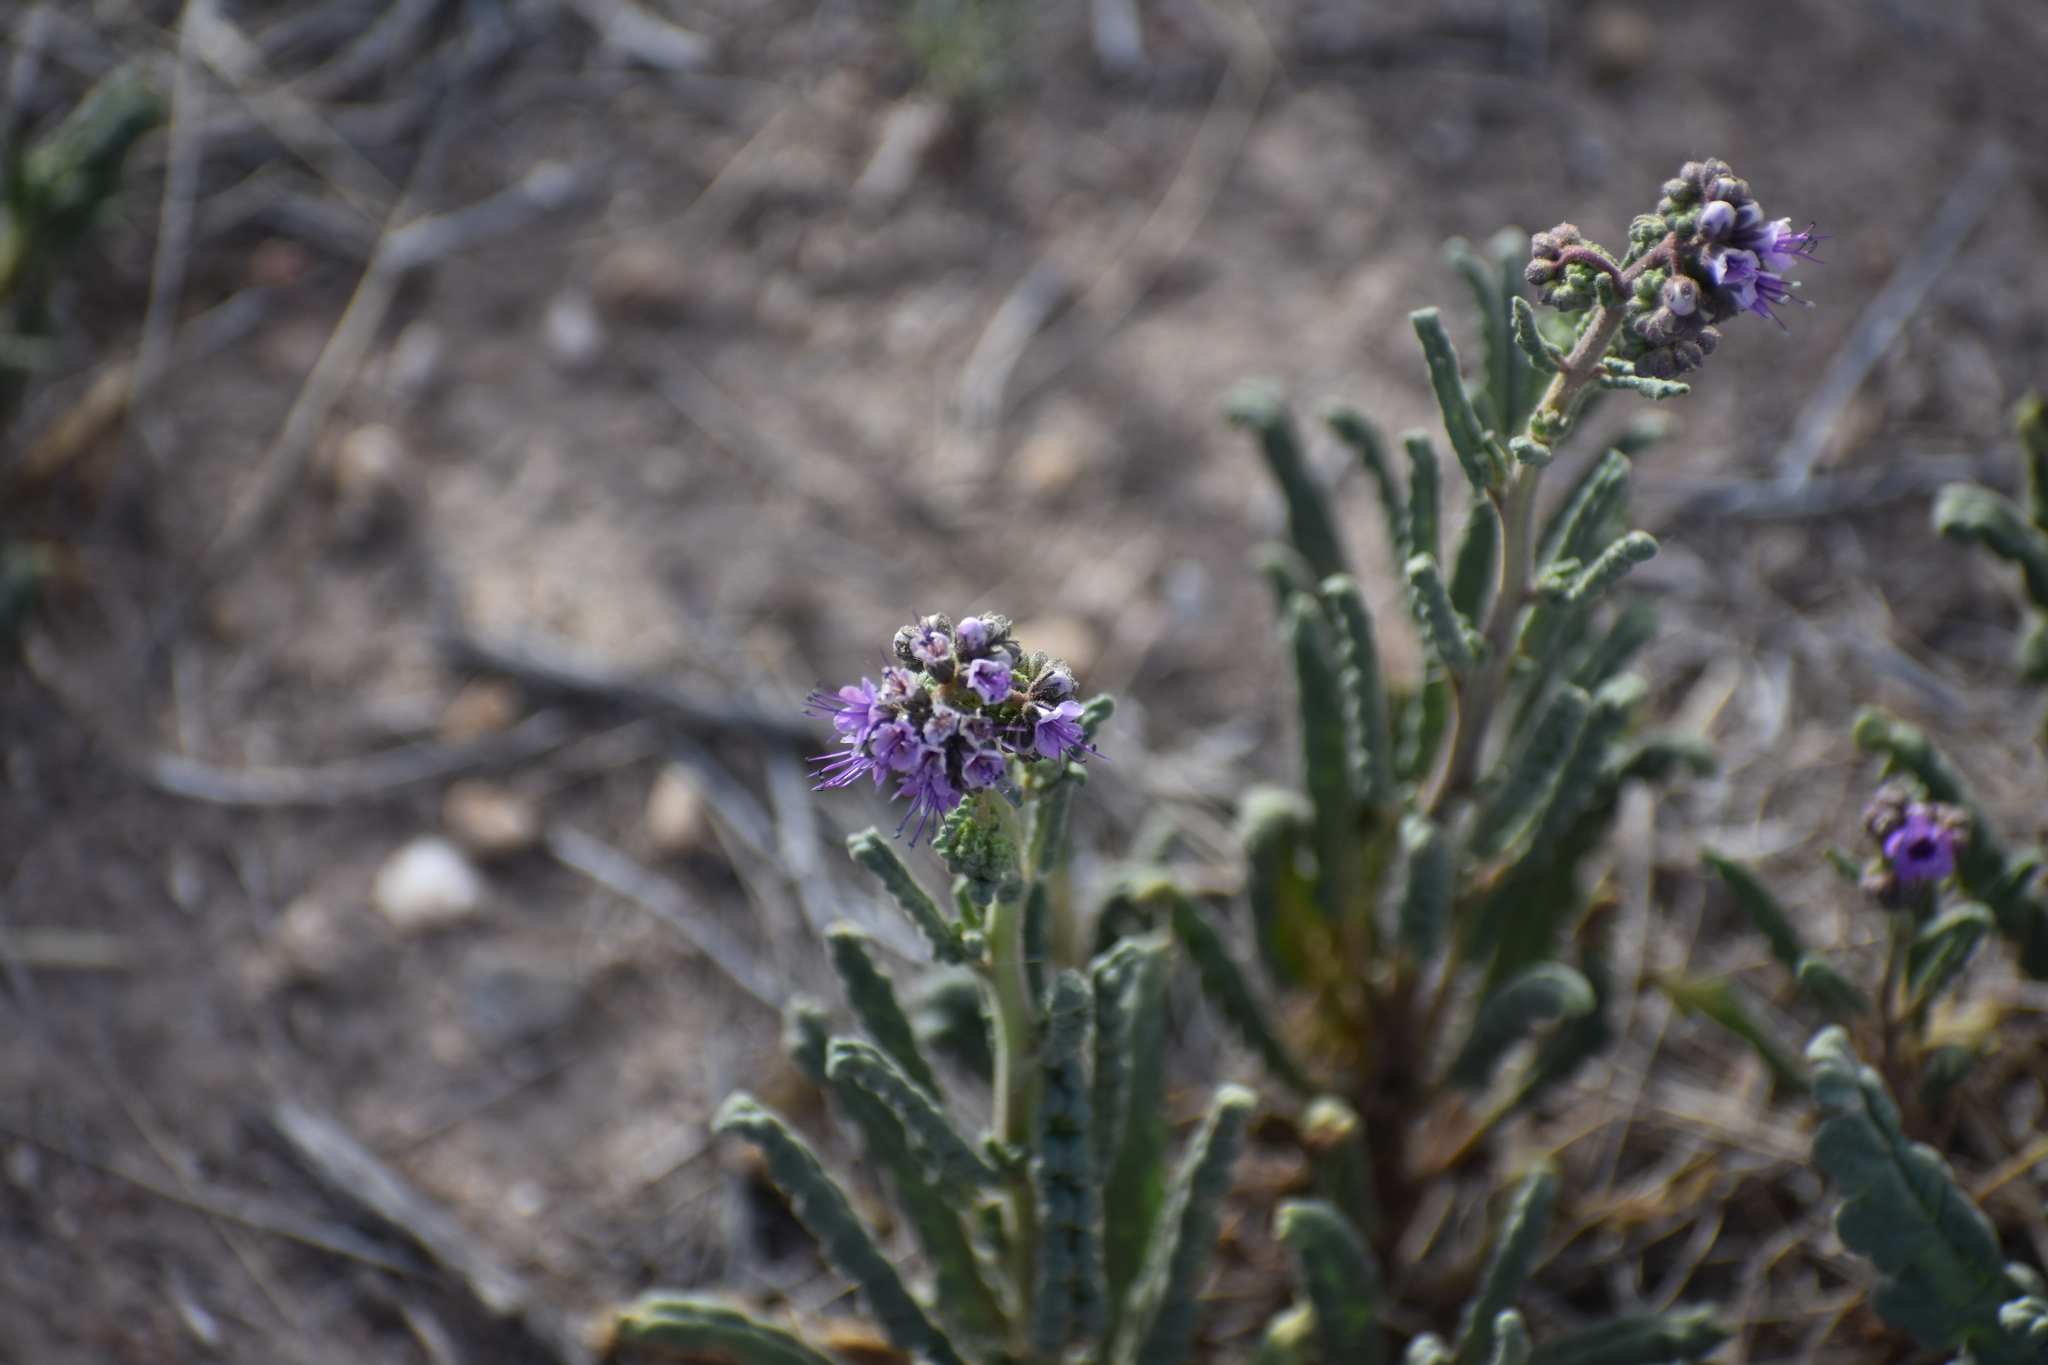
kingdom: Plantae
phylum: Tracheophyta
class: Magnoliopsida
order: Boraginales
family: Hydrophyllaceae
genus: Phacelia
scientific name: Phacelia integrifolia
